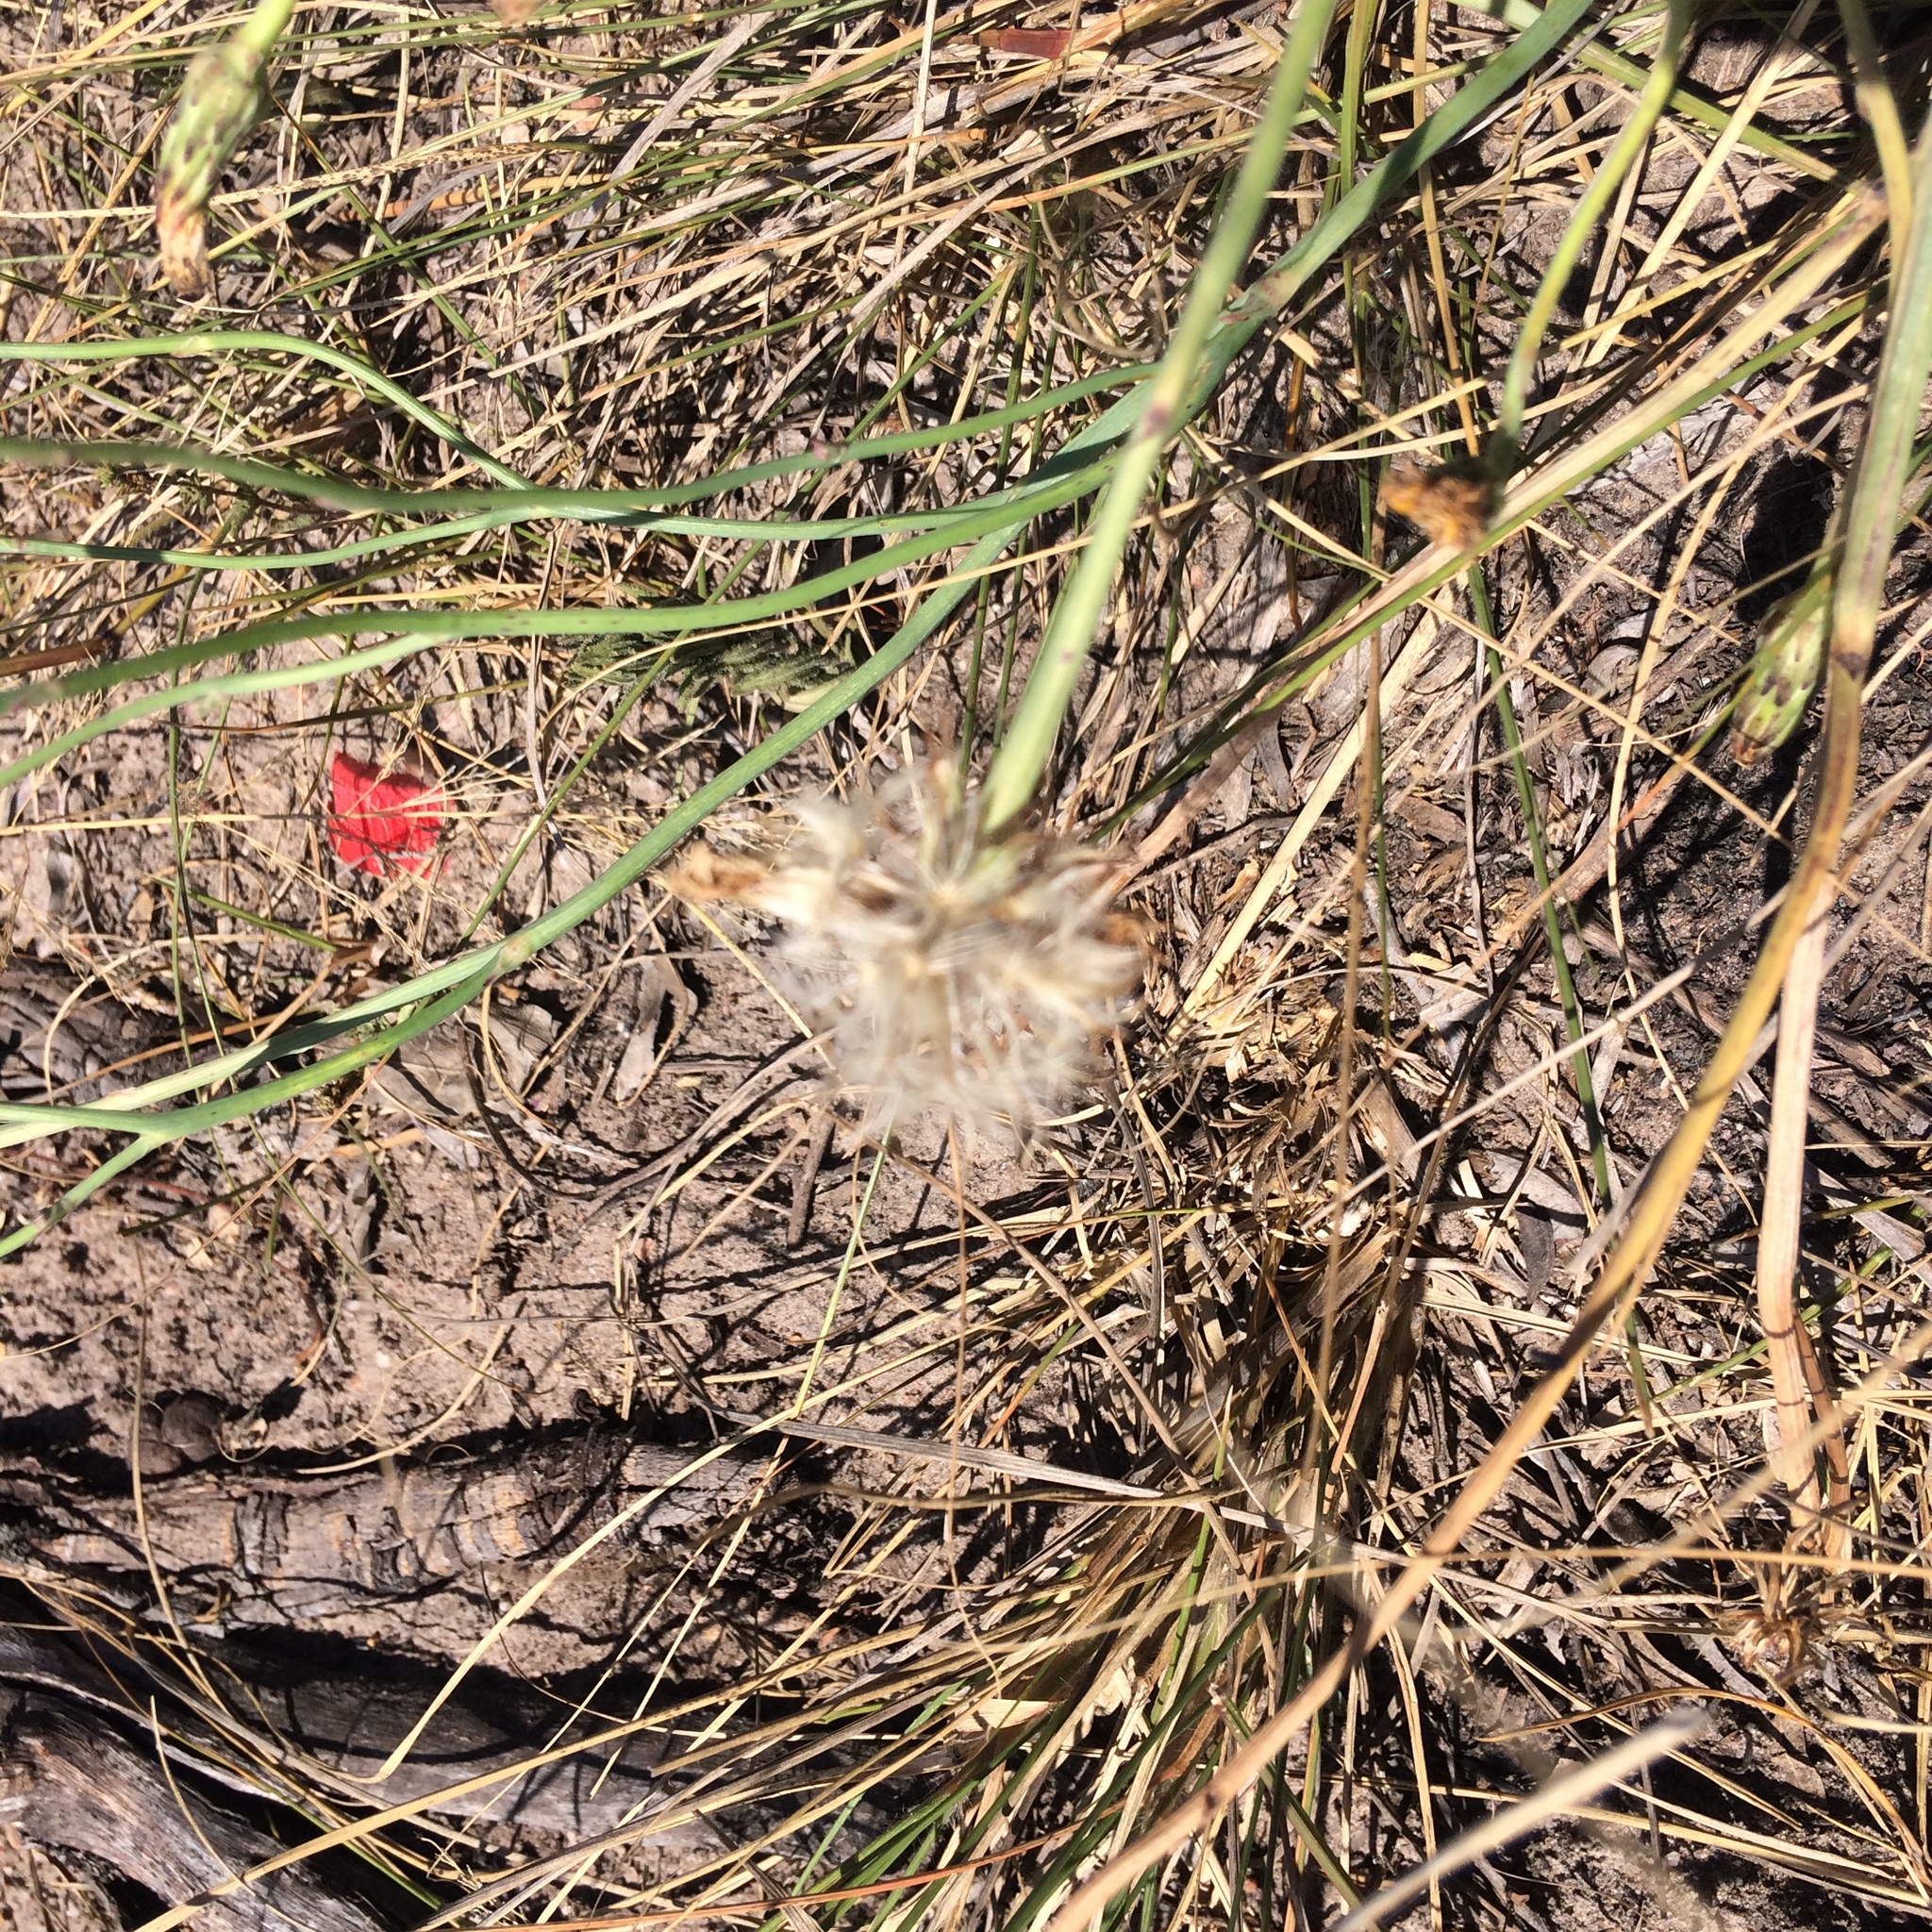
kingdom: Plantae
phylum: Tracheophyta
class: Magnoliopsida
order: Asterales
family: Asteraceae
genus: Hypochaeris
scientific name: Hypochaeris radicata
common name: Flatweed
